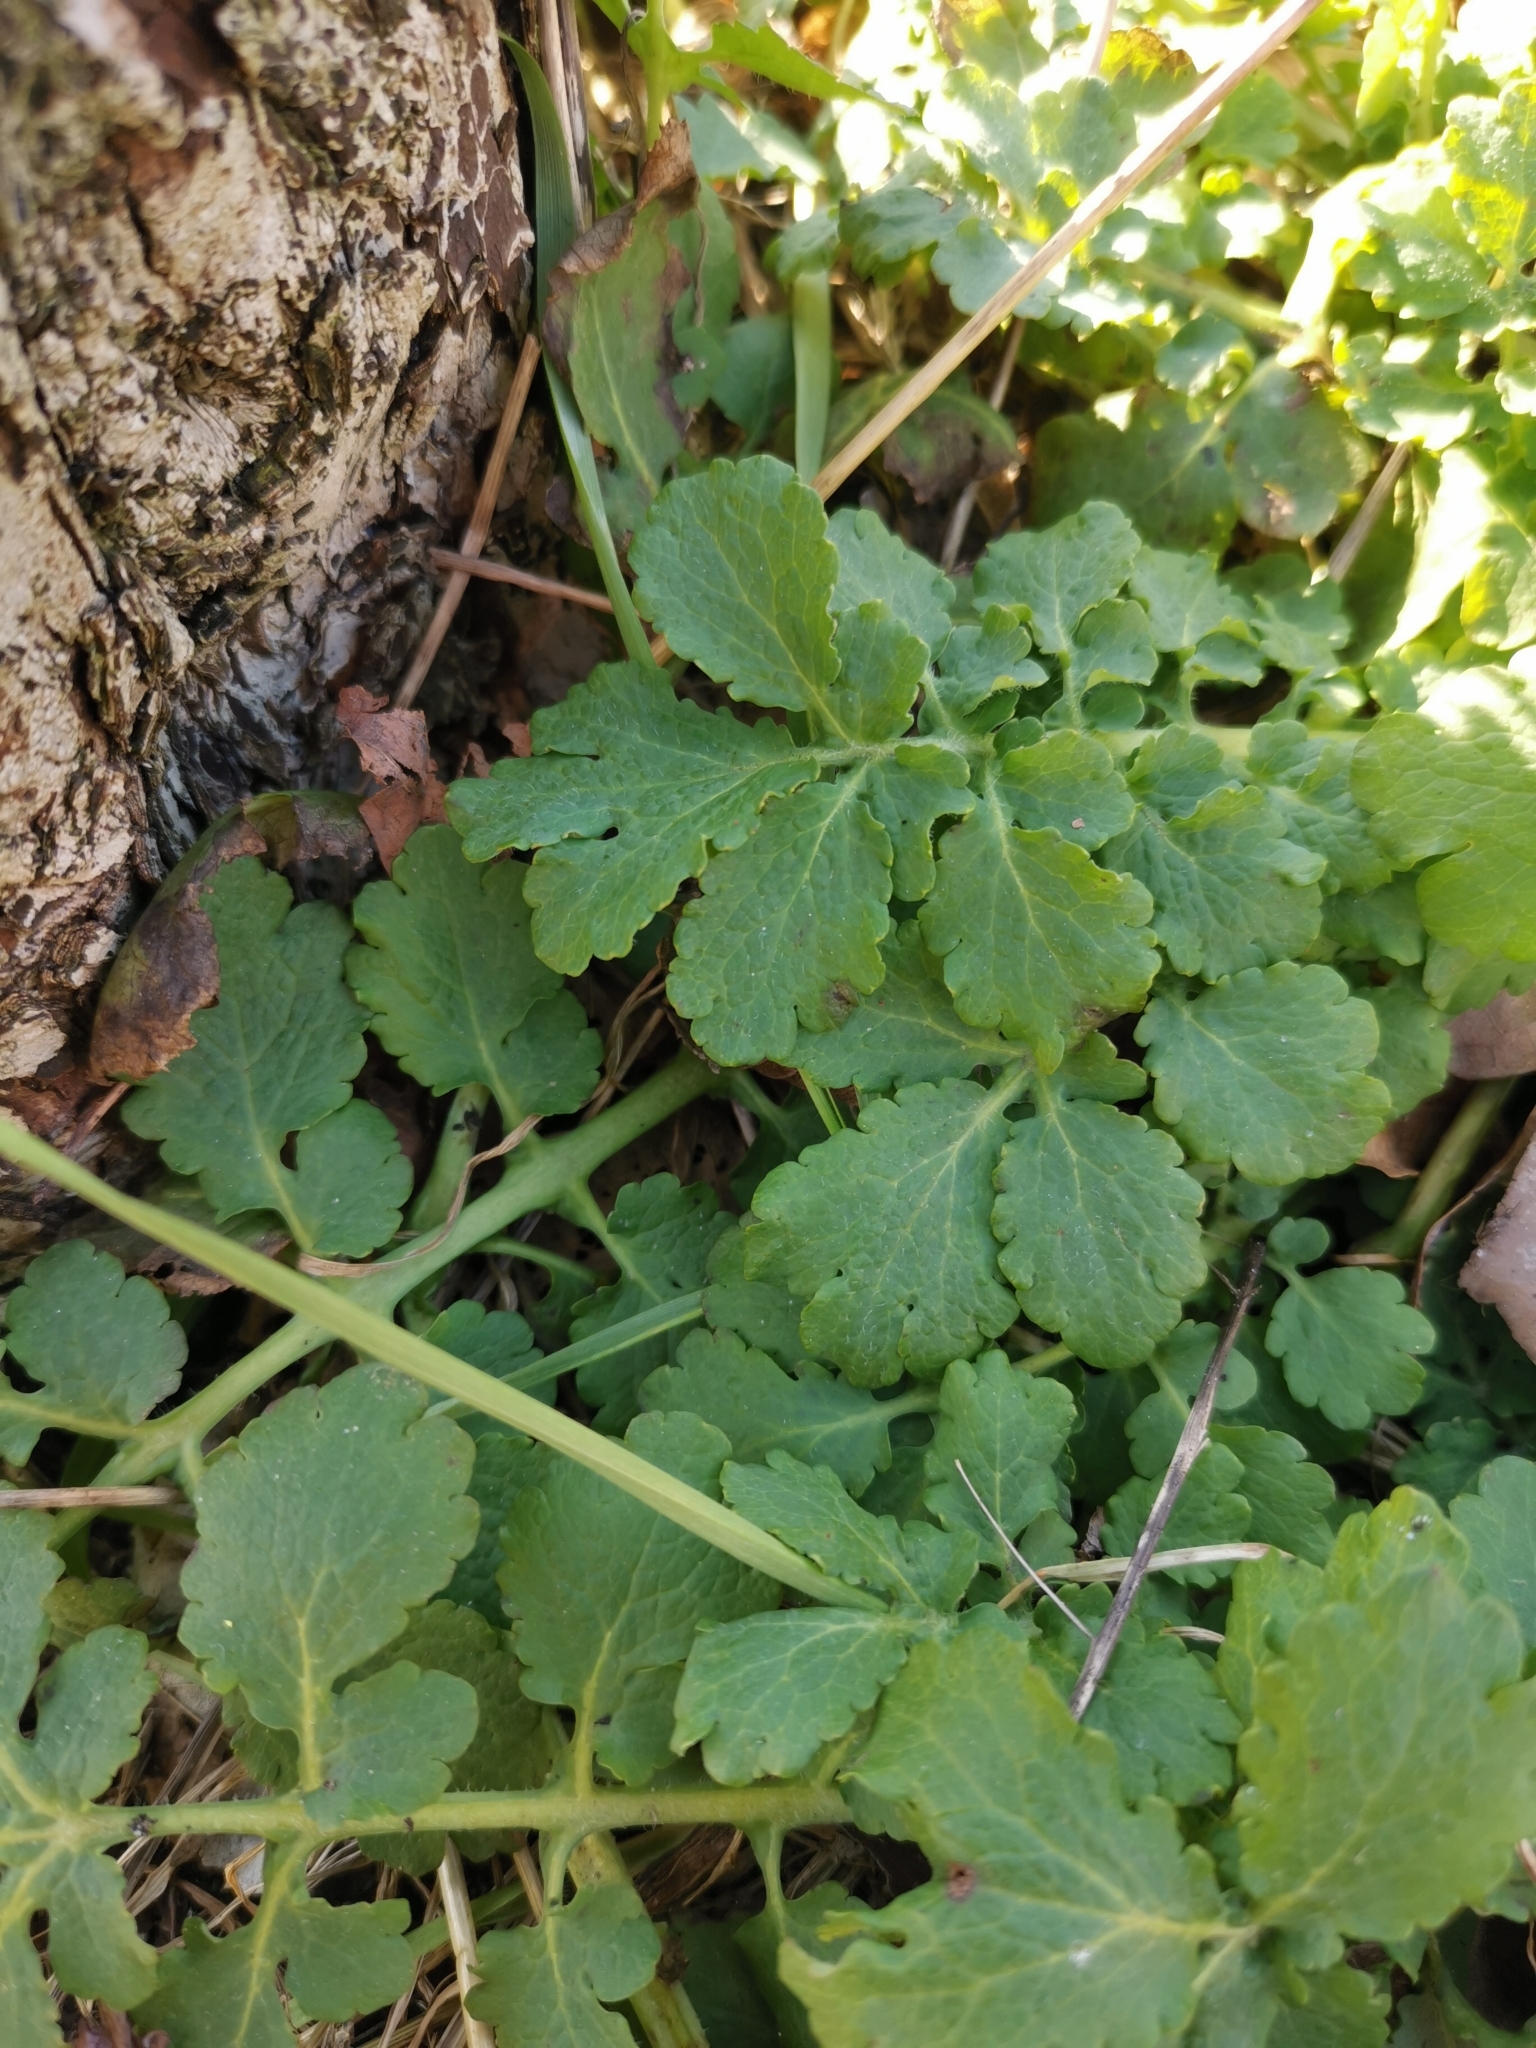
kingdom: Plantae
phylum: Tracheophyta
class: Magnoliopsida
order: Ranunculales
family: Papaveraceae
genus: Chelidonium
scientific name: Chelidonium majus
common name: Greater celandine
